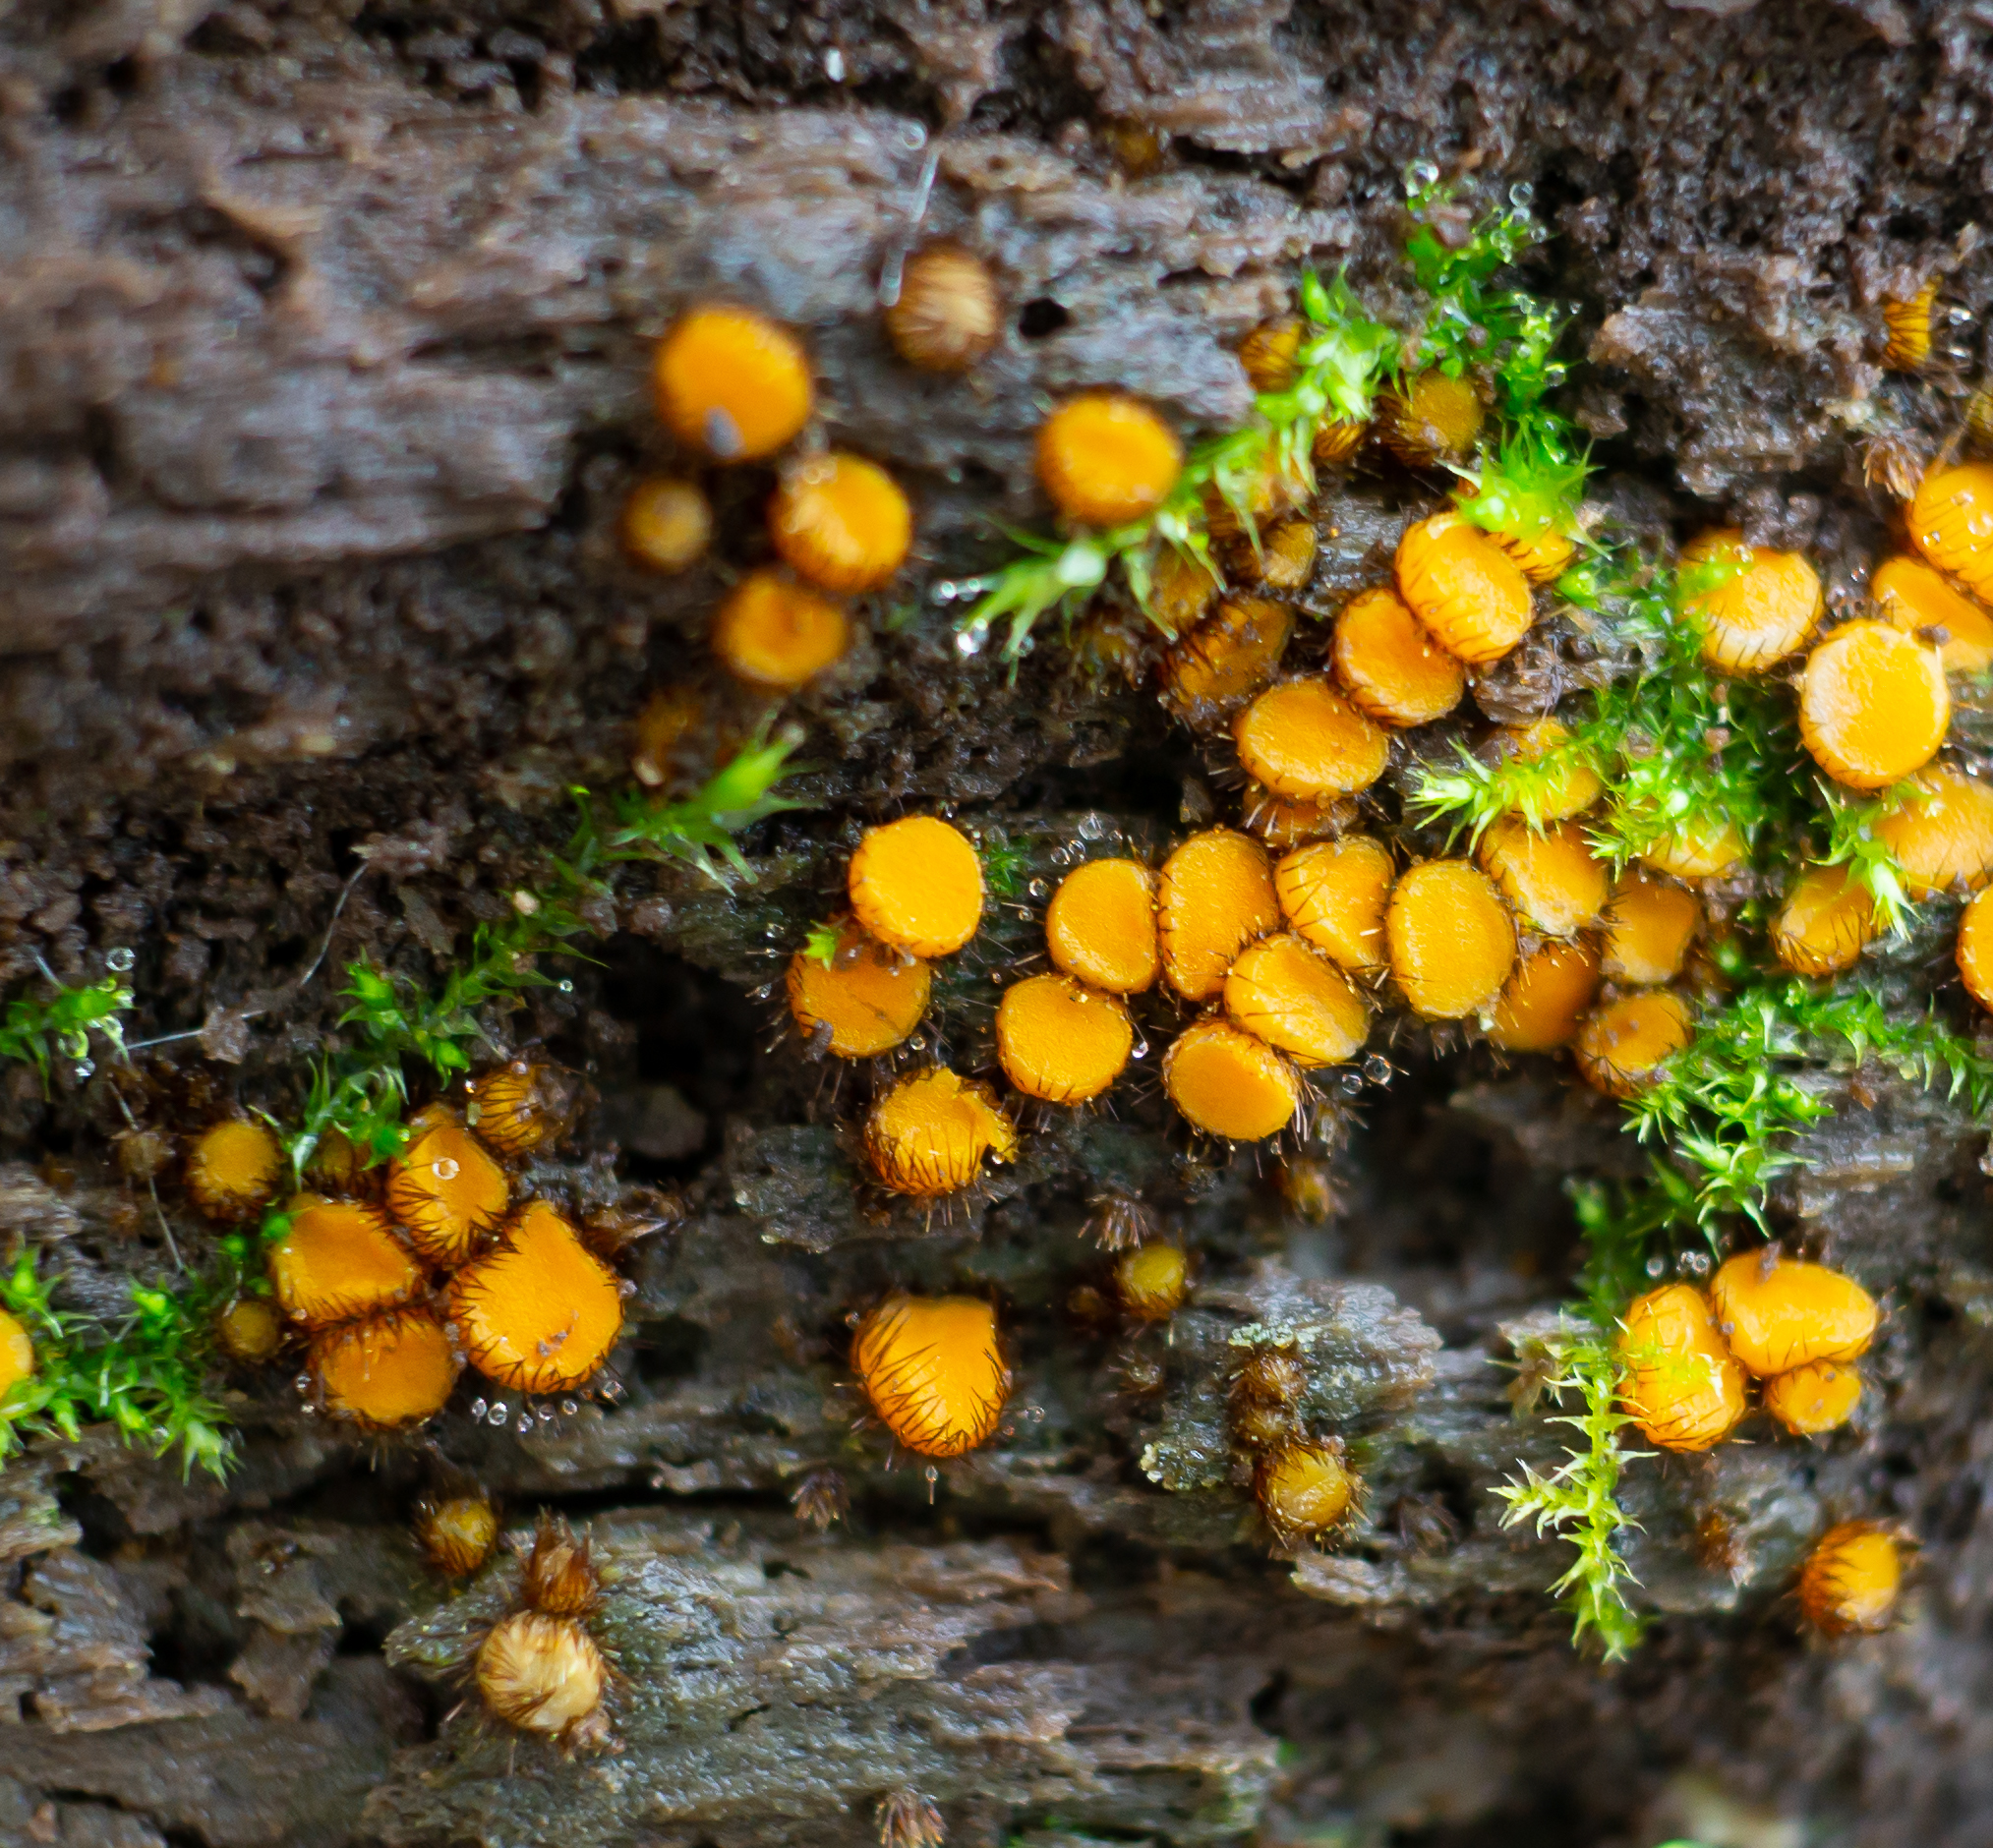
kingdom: Fungi
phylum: Ascomycota
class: Pezizomycetes
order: Pezizales
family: Pyronemataceae
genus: Scutellinia
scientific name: Scutellinia setosa
